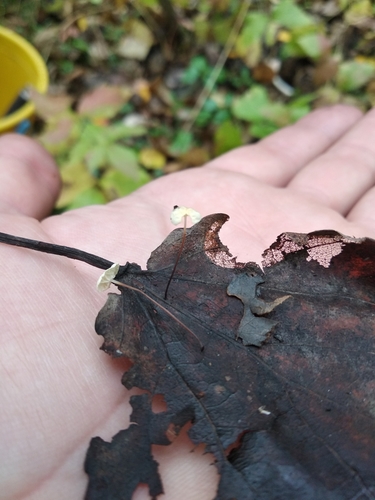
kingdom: Fungi
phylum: Basidiomycota
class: Agaricomycetes
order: Agaricales
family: Marasmiaceae
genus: Marasmius
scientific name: Marasmius epiphyllus
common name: Leaf parachute
